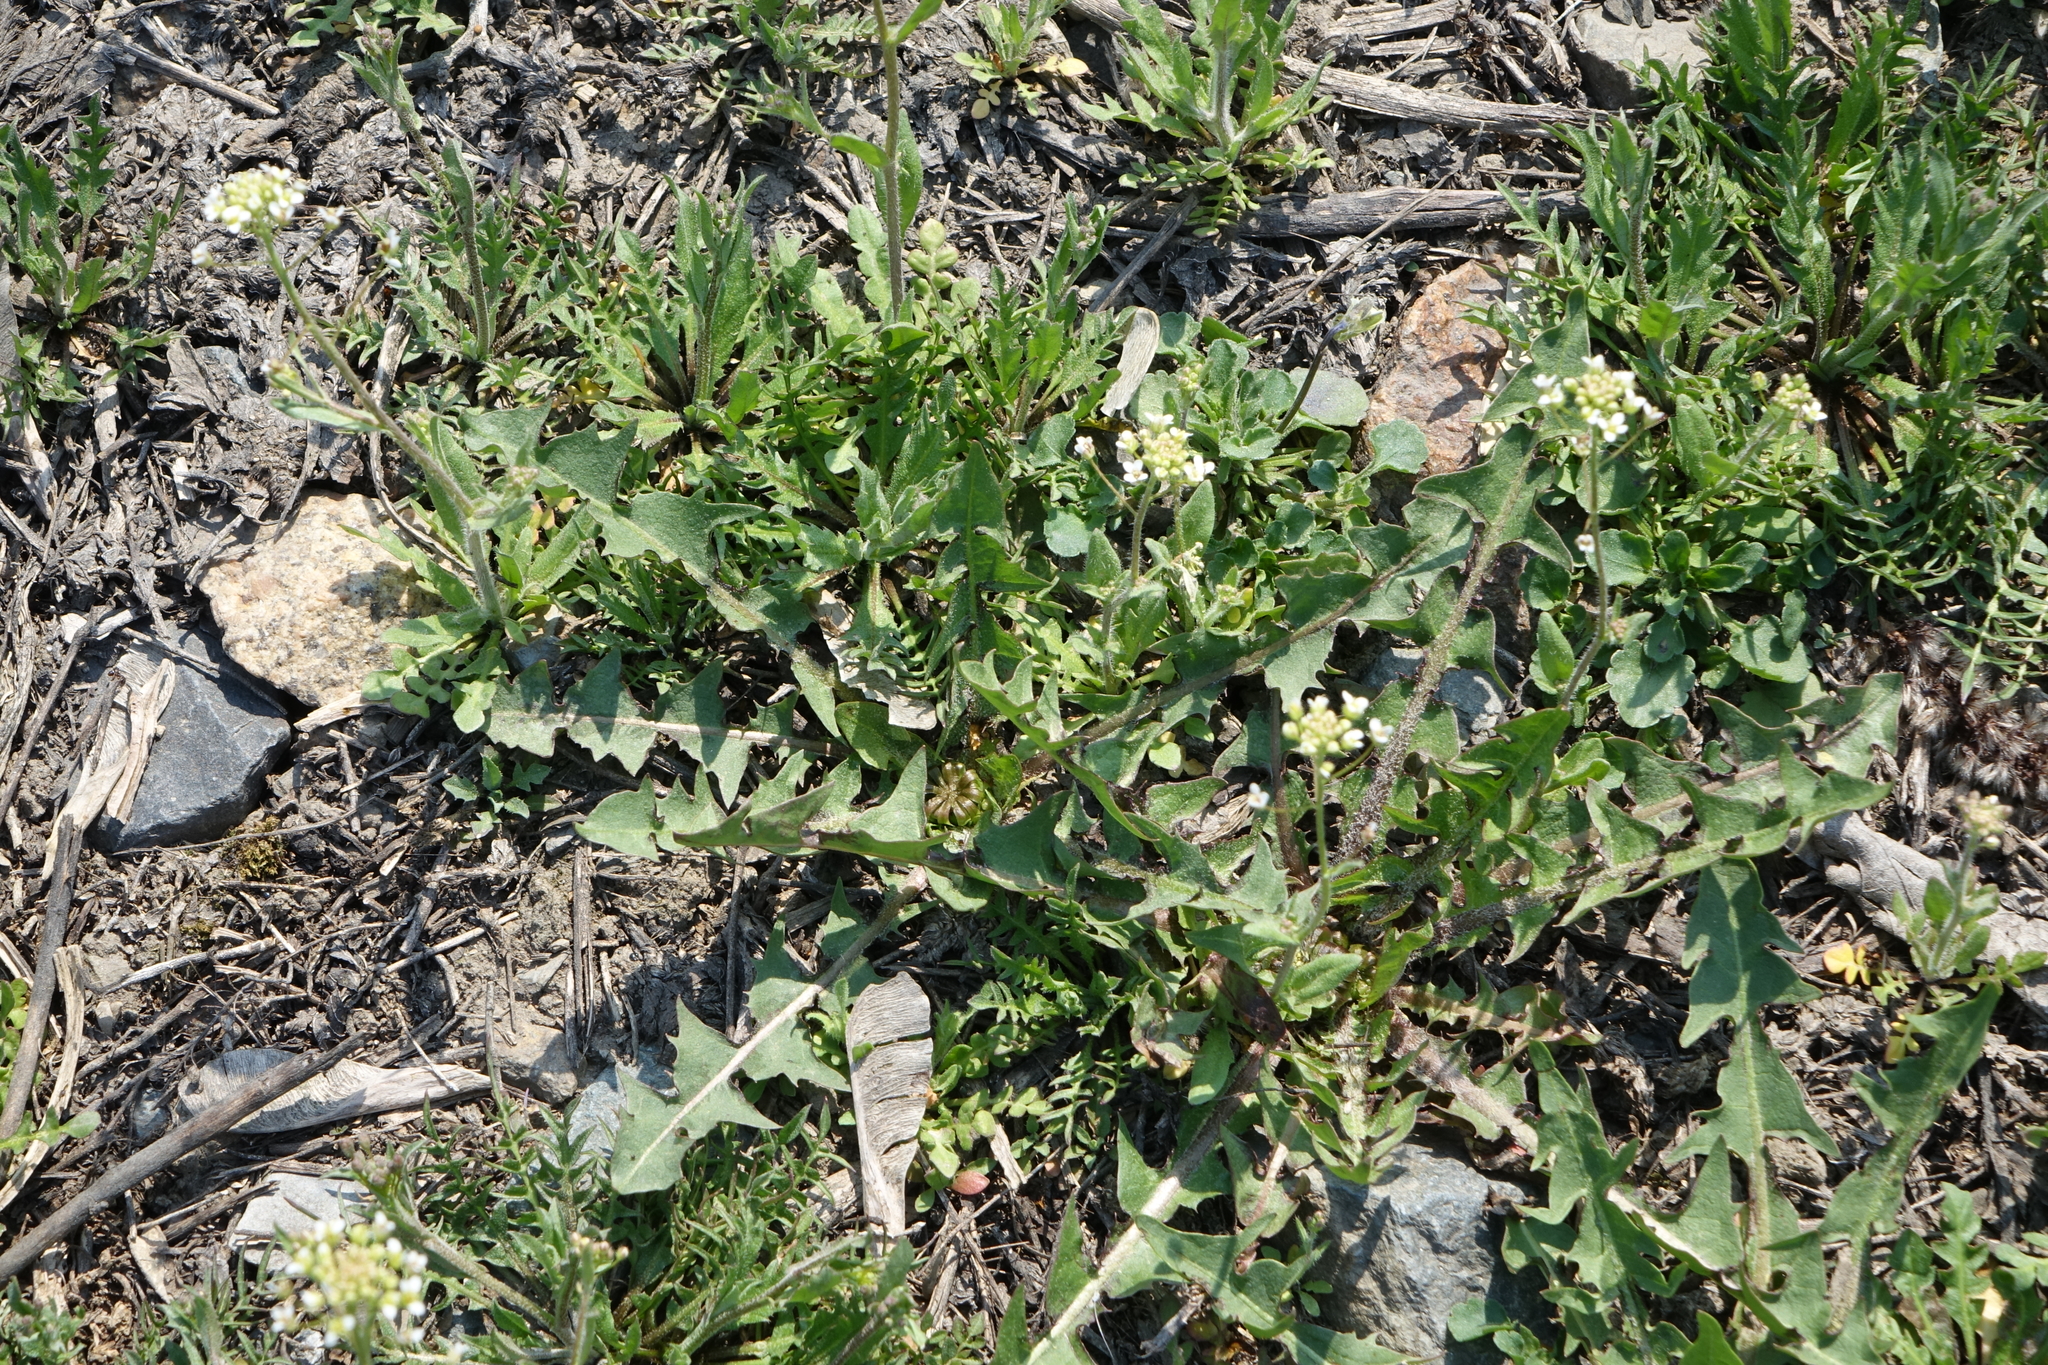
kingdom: Plantae
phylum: Tracheophyta
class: Magnoliopsida
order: Brassicales
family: Brassicaceae
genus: Capsella
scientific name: Capsella bursa-pastoris
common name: Shepherd's purse
